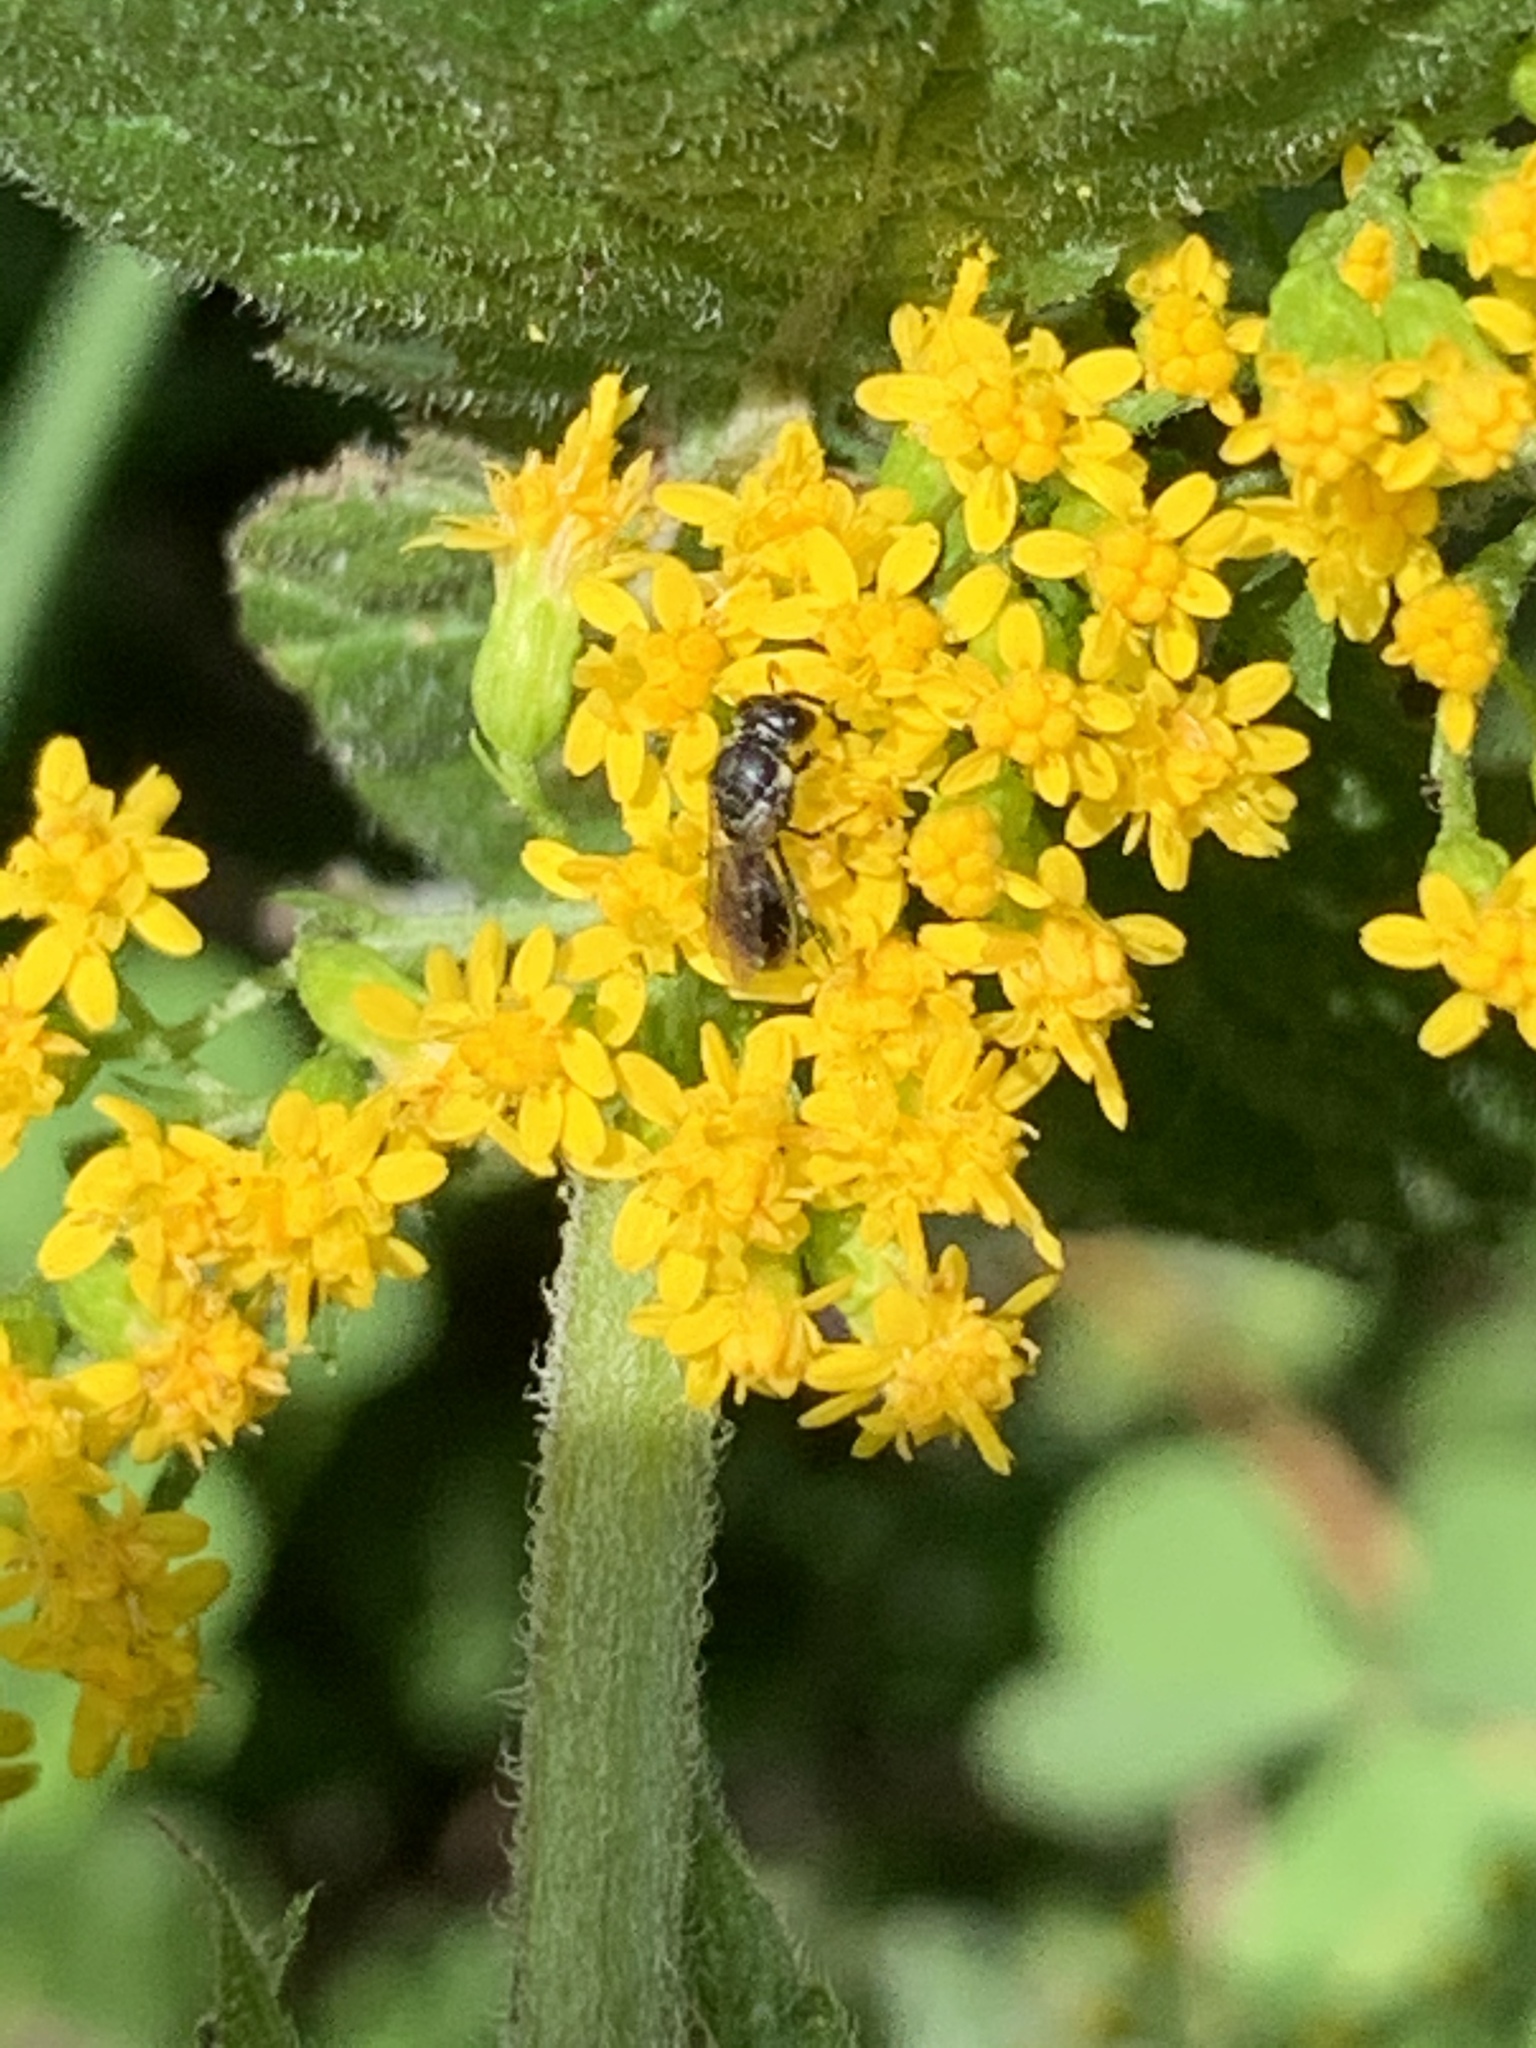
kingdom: Animalia
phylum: Arthropoda
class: Insecta
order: Hymenoptera
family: Colletidae
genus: Hylaeus
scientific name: Hylaeus
